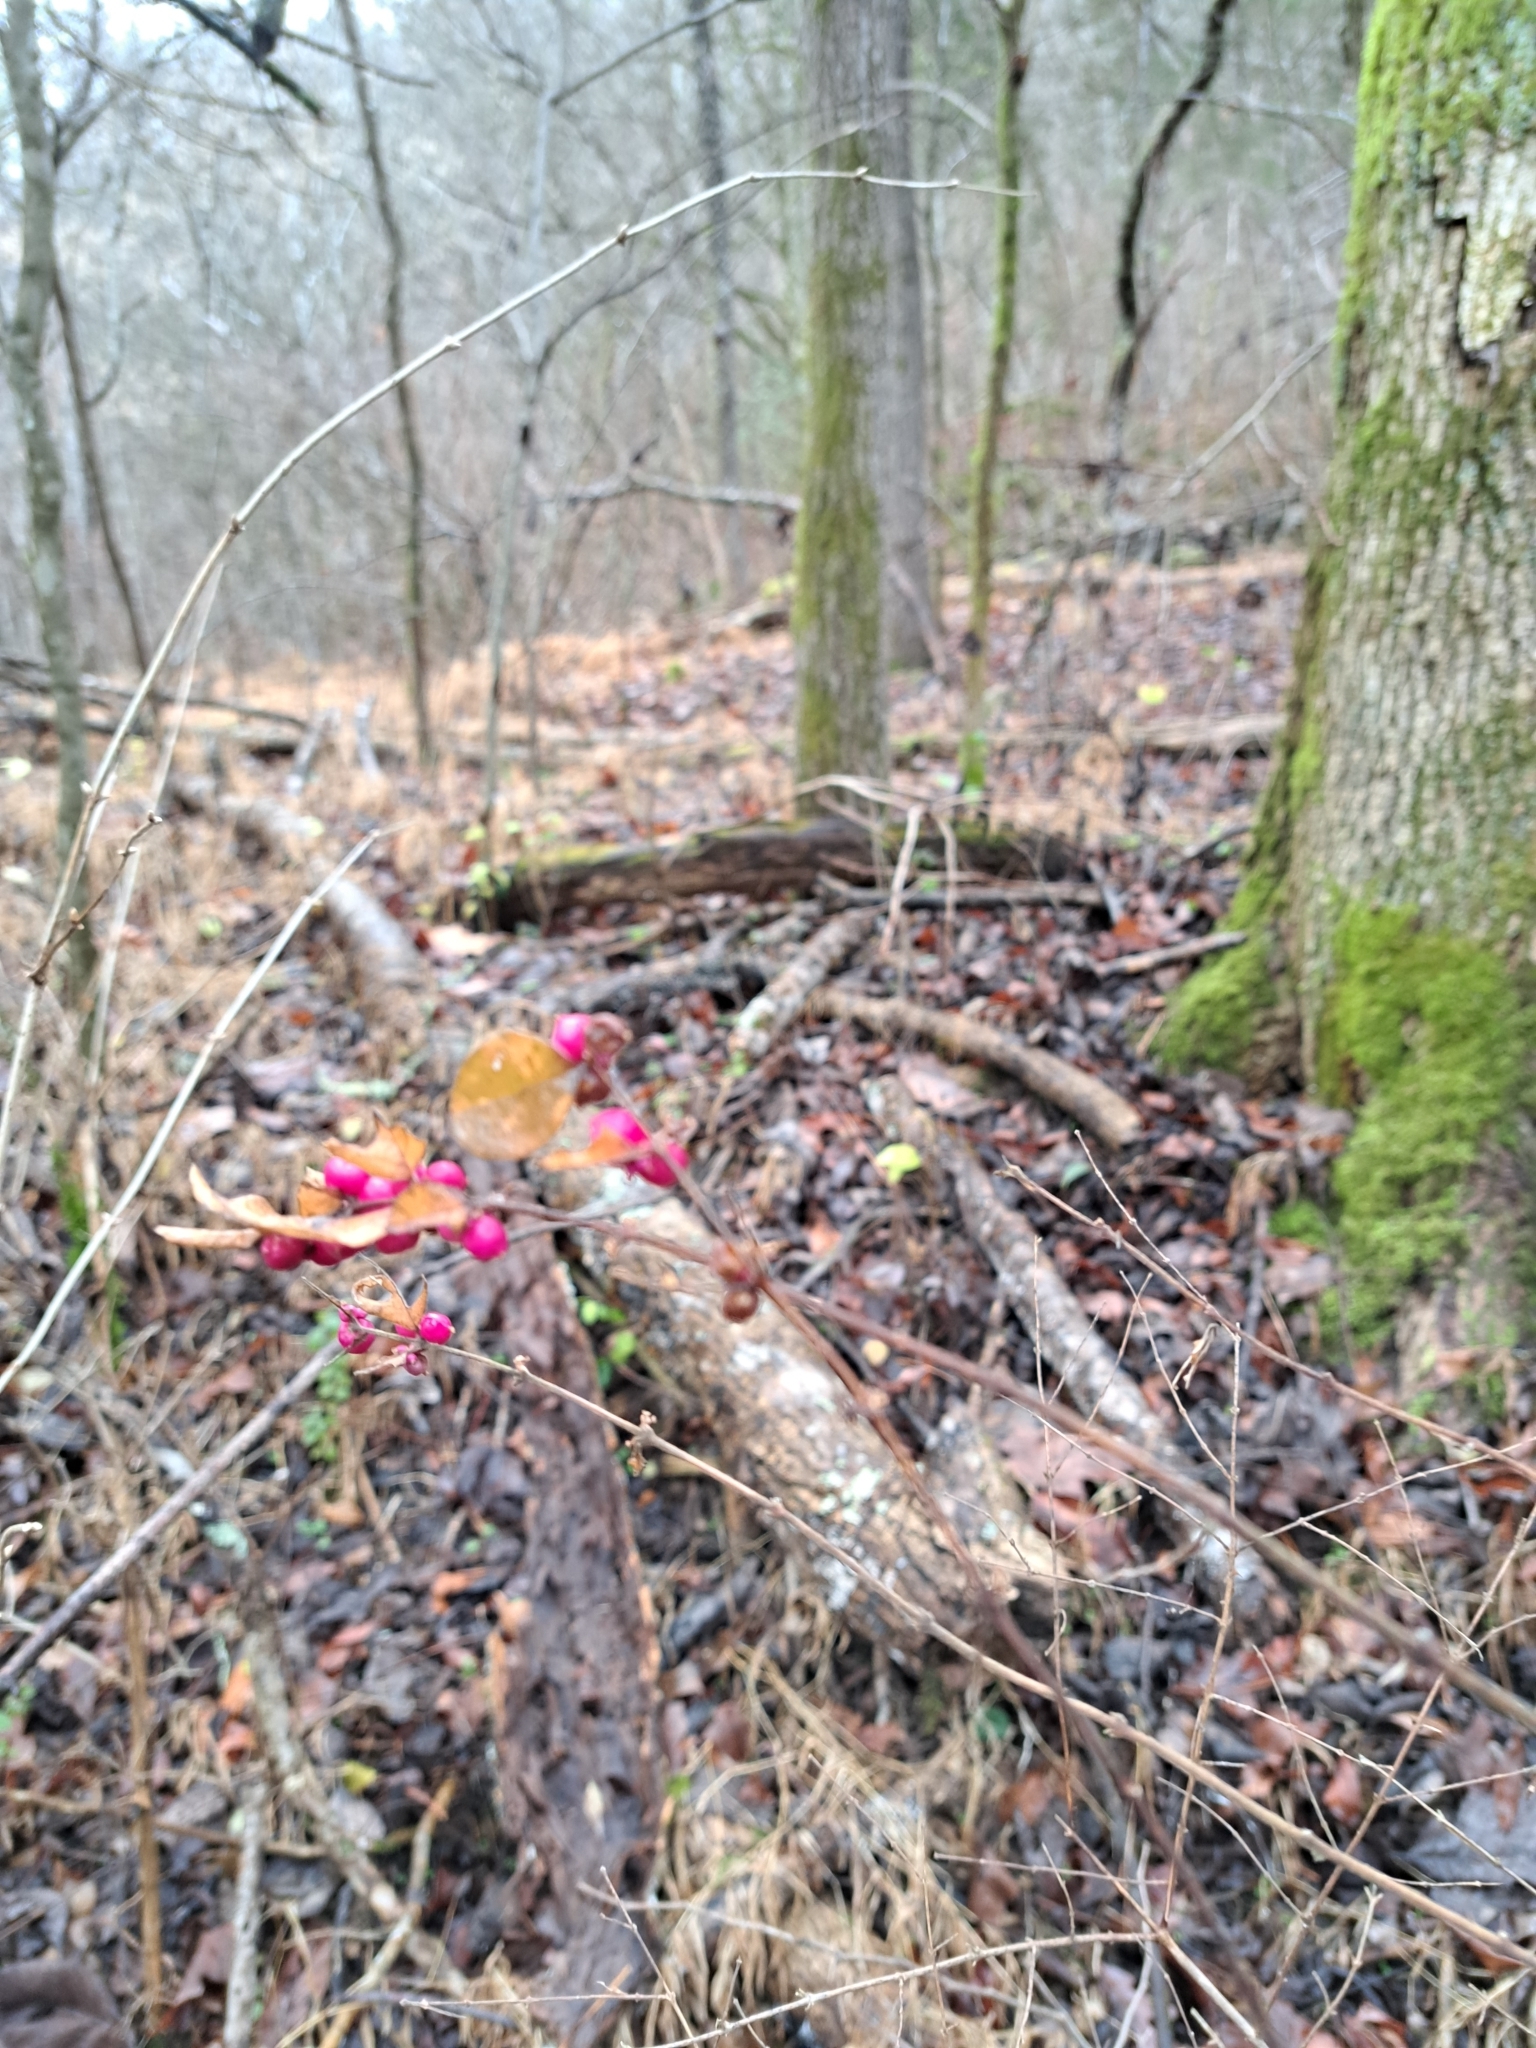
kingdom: Plantae
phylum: Tracheophyta
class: Magnoliopsida
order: Dipsacales
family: Caprifoliaceae
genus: Symphoricarpos
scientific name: Symphoricarpos orbiculatus
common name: Coralberry
